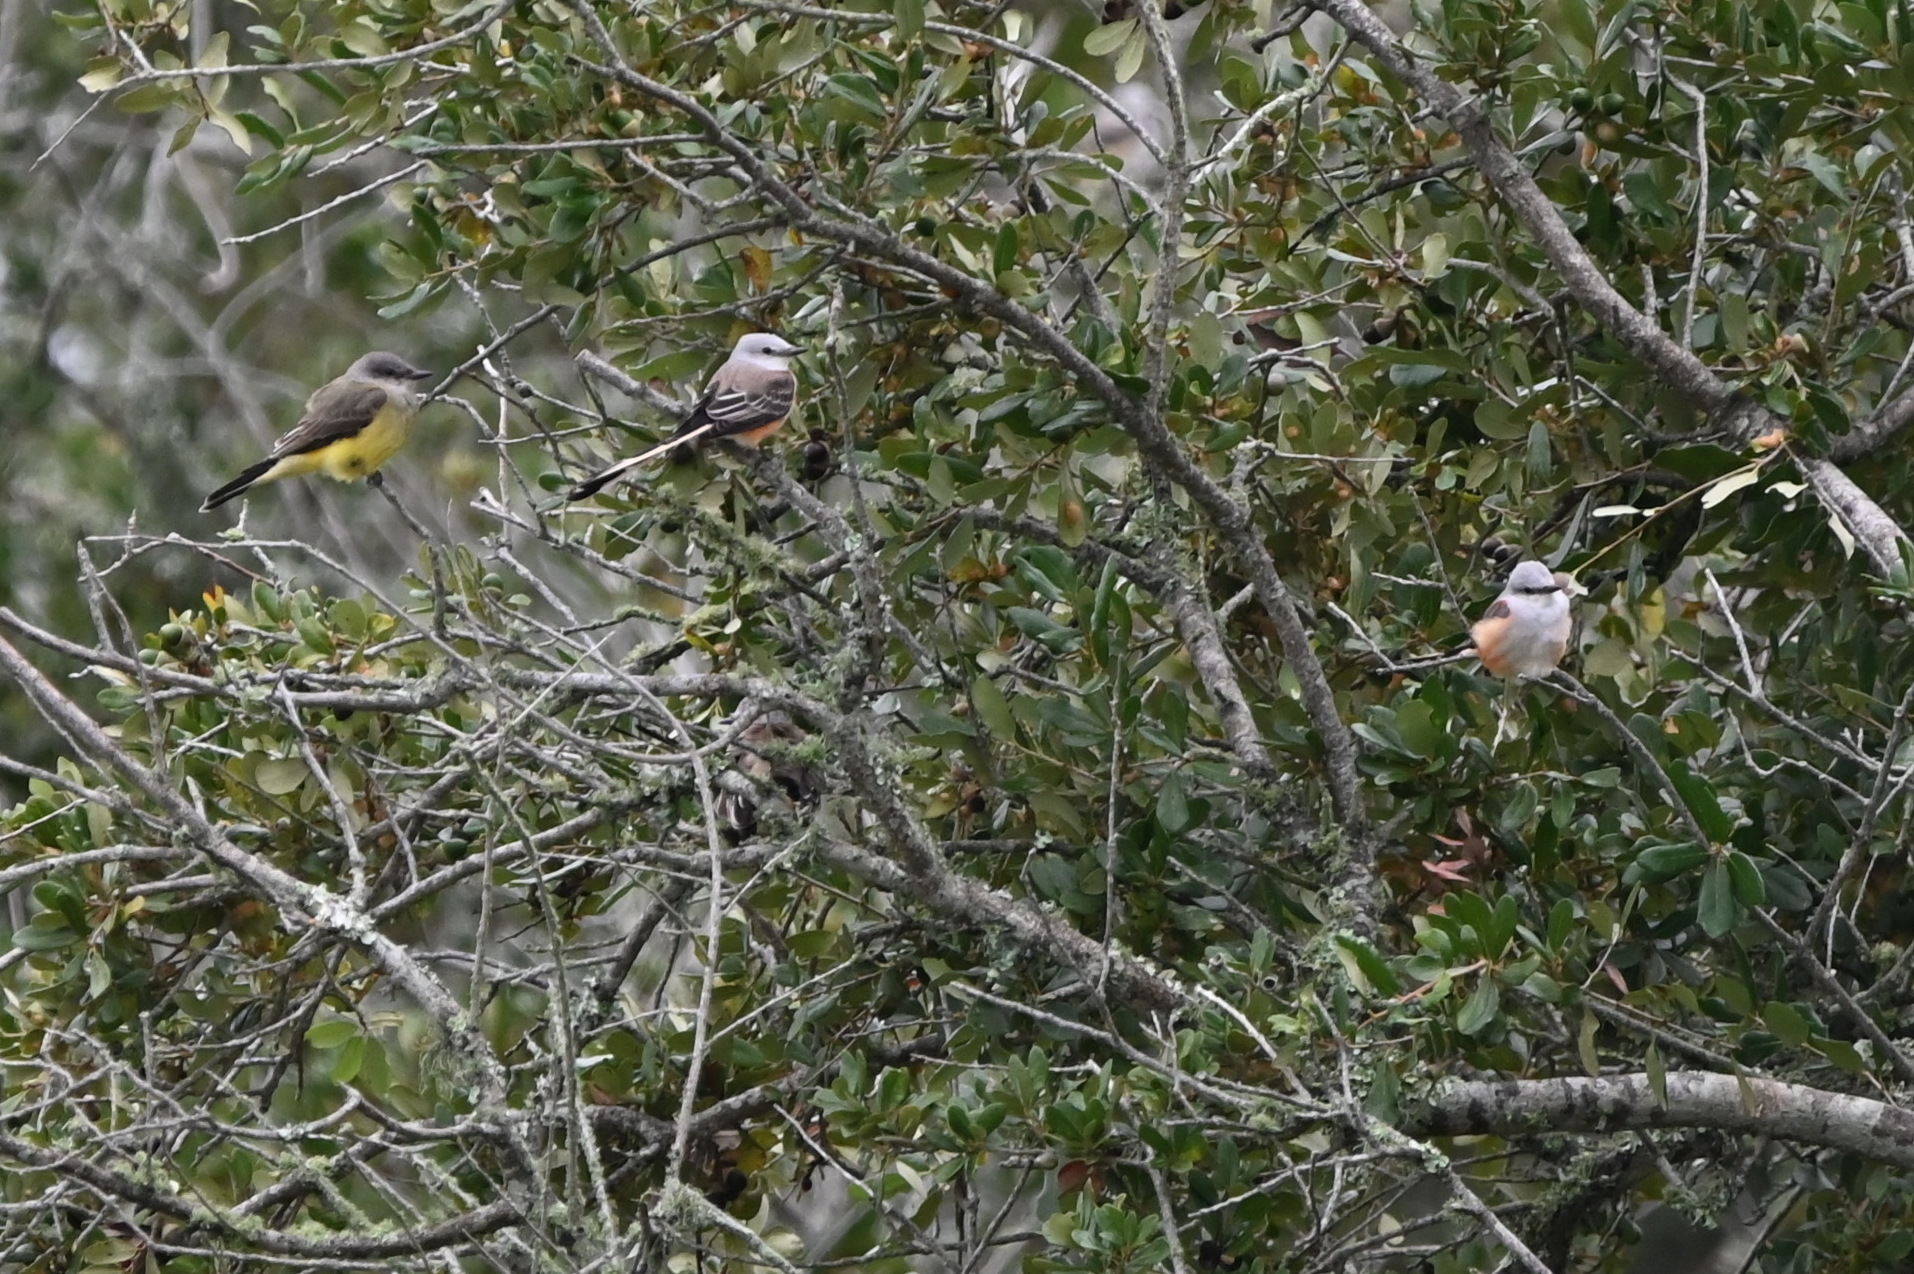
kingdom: Animalia
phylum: Chordata
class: Aves
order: Passeriformes
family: Tyrannidae
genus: Tyrannus
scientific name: Tyrannus verticalis
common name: Western kingbird
